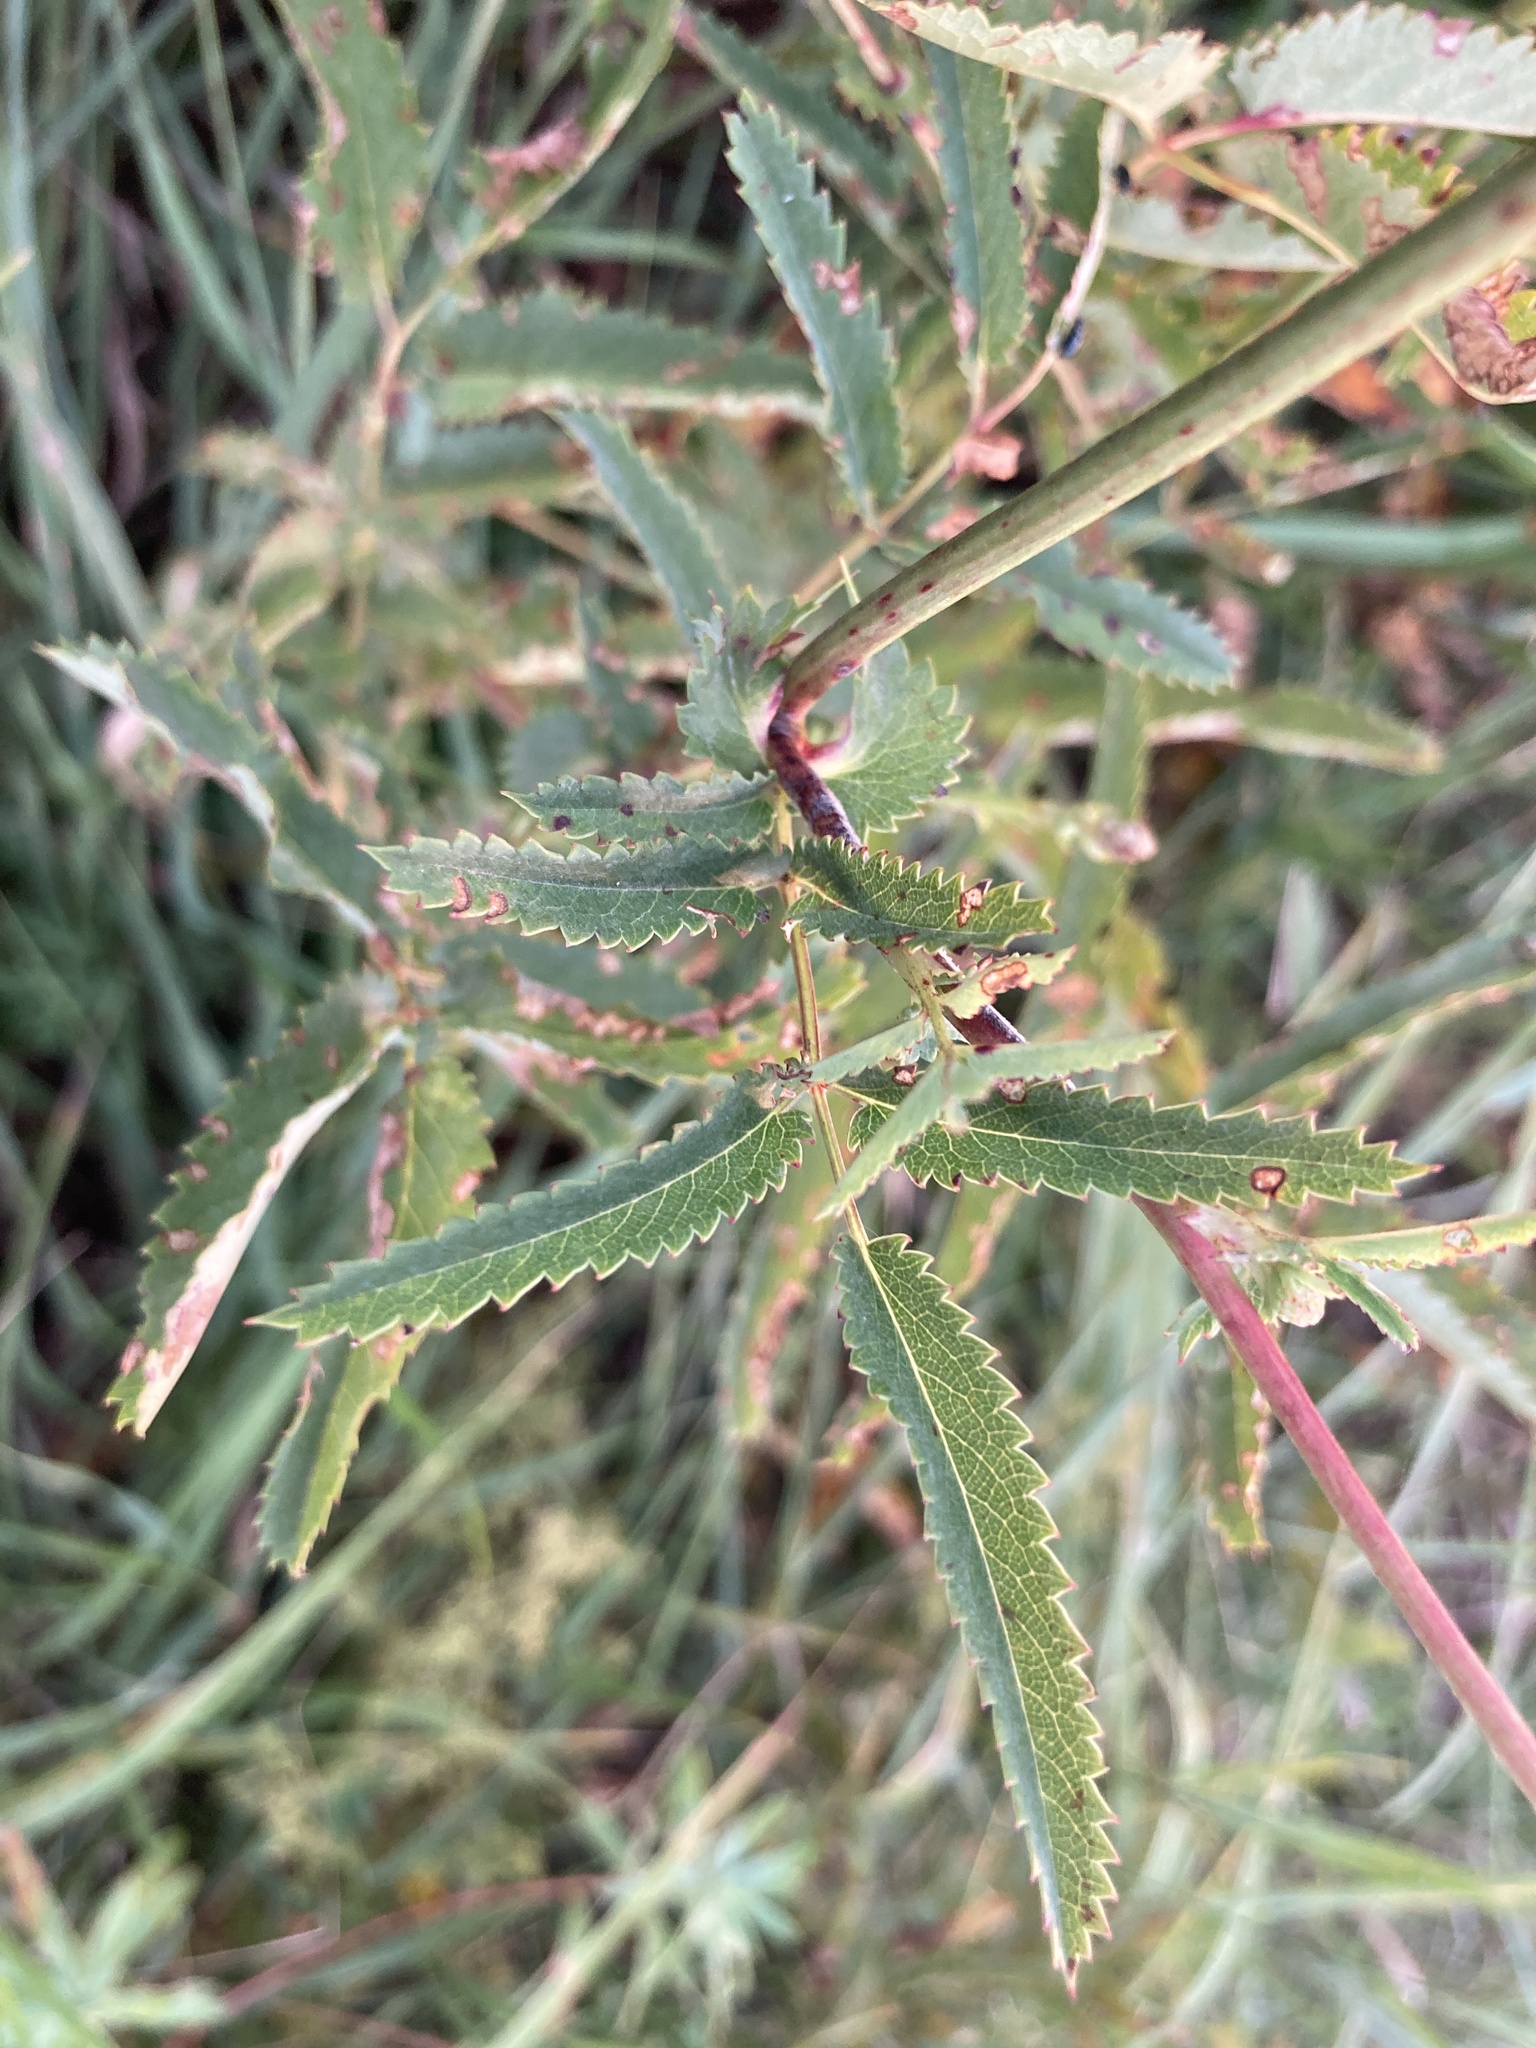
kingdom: Plantae
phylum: Tracheophyta
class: Magnoliopsida
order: Rosales
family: Rosaceae
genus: Sanguisorba
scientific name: Sanguisorba officinalis
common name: Great burnet
